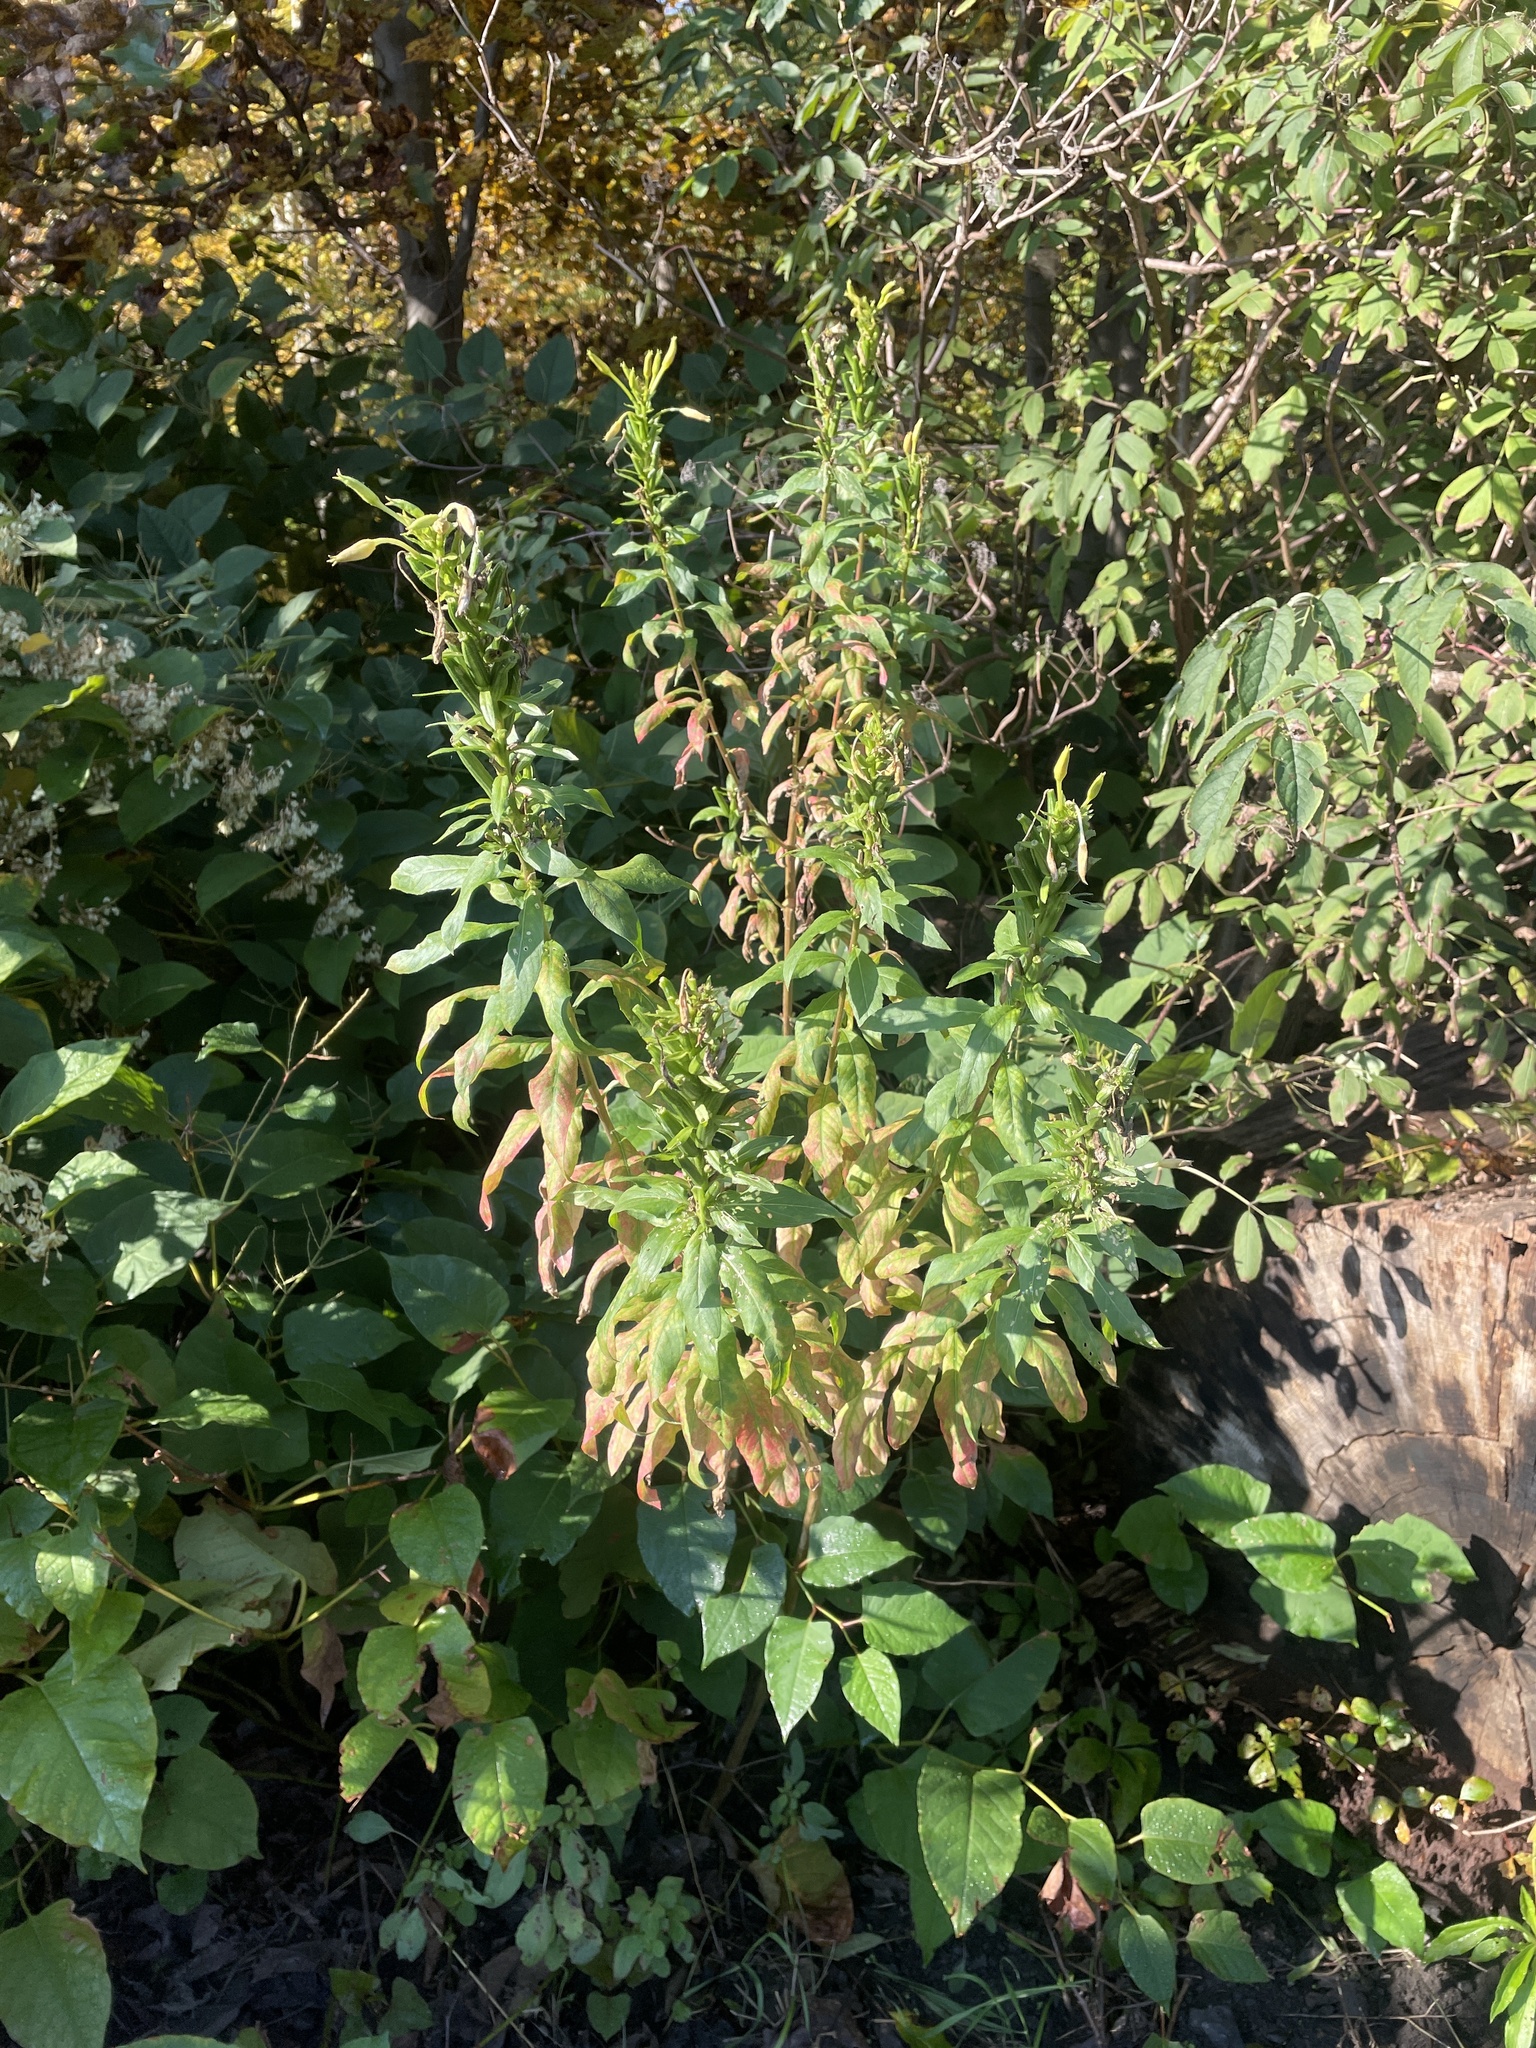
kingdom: Plantae
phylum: Tracheophyta
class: Magnoliopsida
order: Myrtales
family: Onagraceae
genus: Oenothera
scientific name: Oenothera biennis
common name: Common evening-primrose
